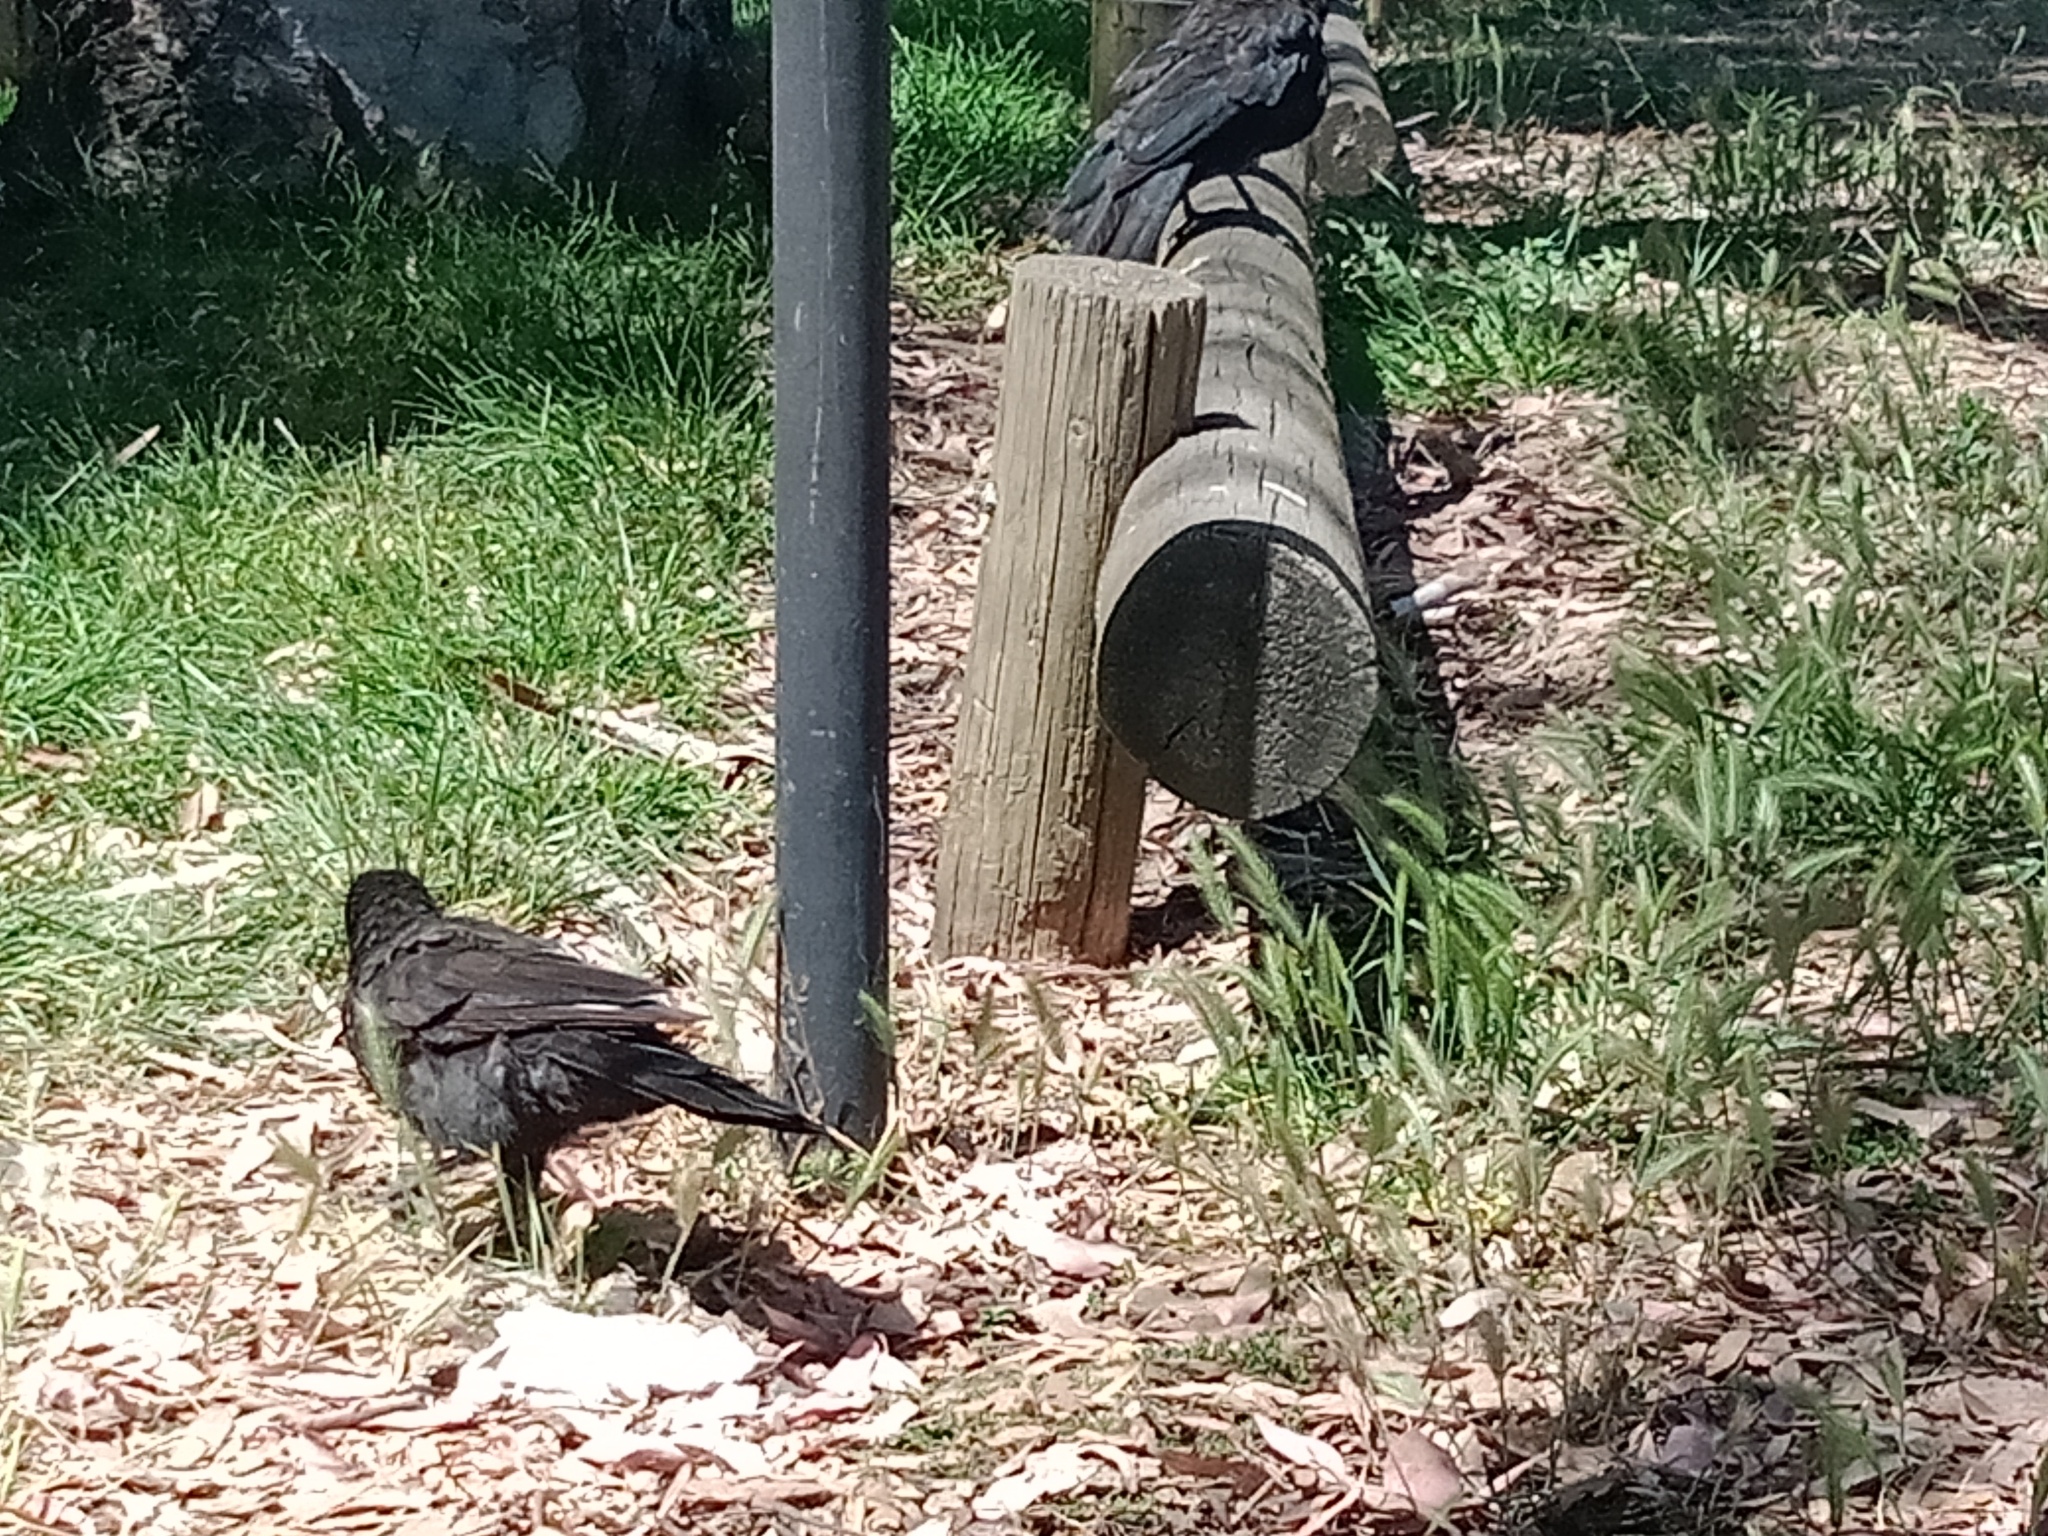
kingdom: Animalia
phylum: Chordata
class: Aves
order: Passeriformes
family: Corcoracidae
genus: Corcorax
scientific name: Corcorax melanoramphos
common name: White-winged chough
